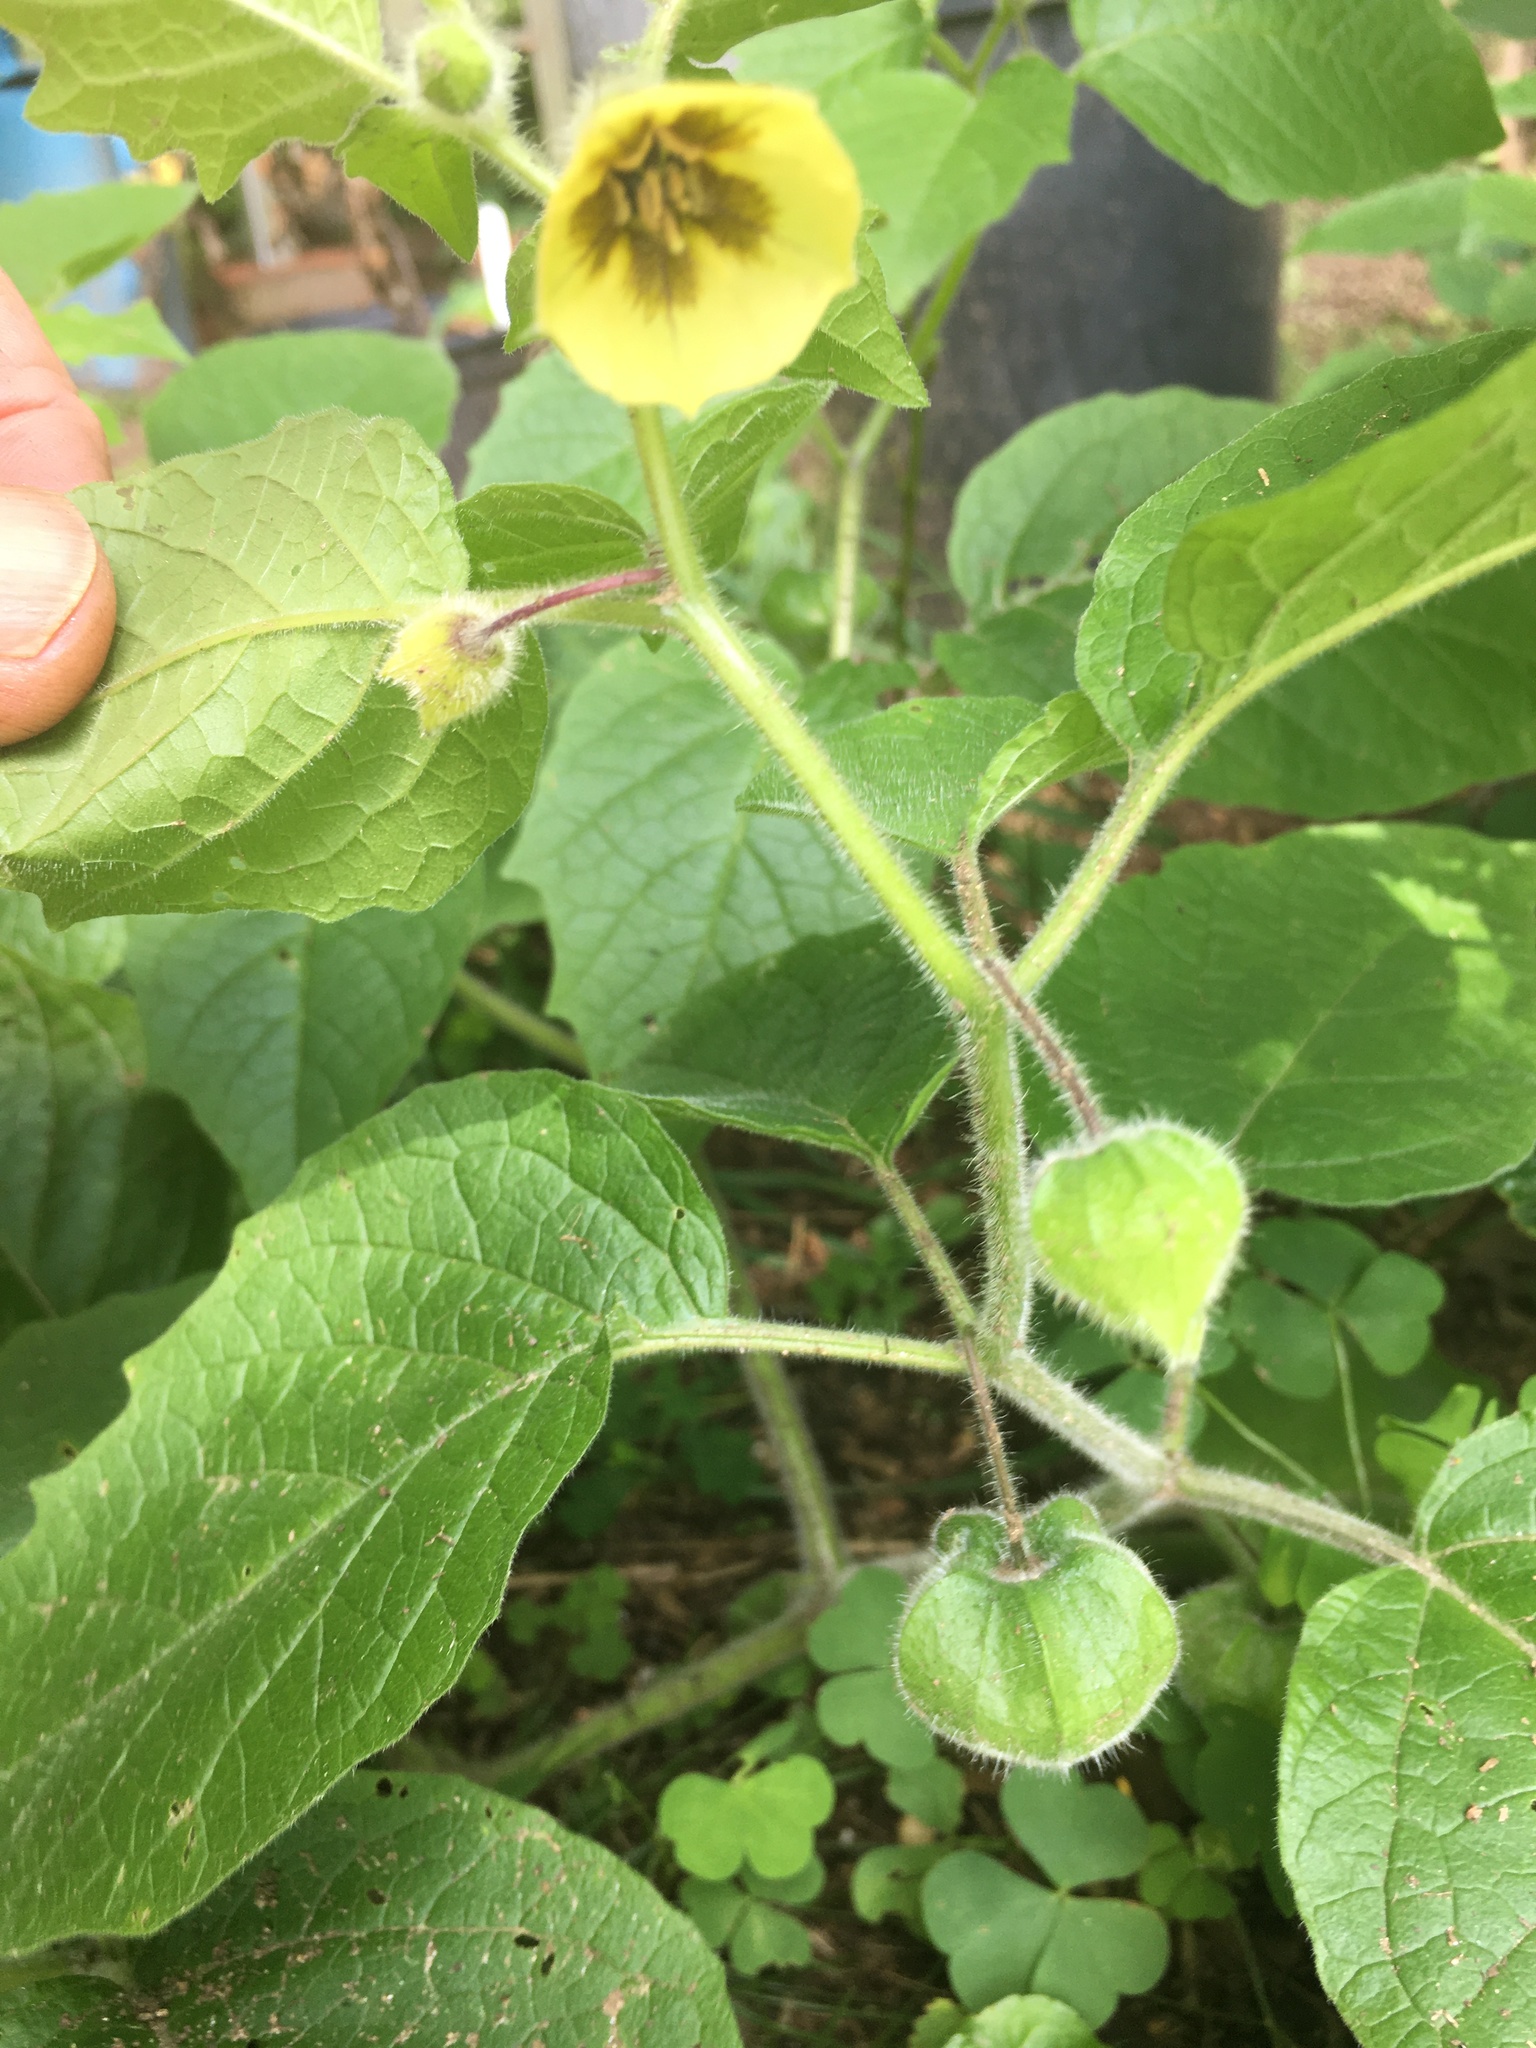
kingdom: Plantae
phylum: Tracheophyta
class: Magnoliopsida
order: Solanales
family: Solanaceae
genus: Physalis
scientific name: Physalis heterophylla
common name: Clammy ground-cherry
